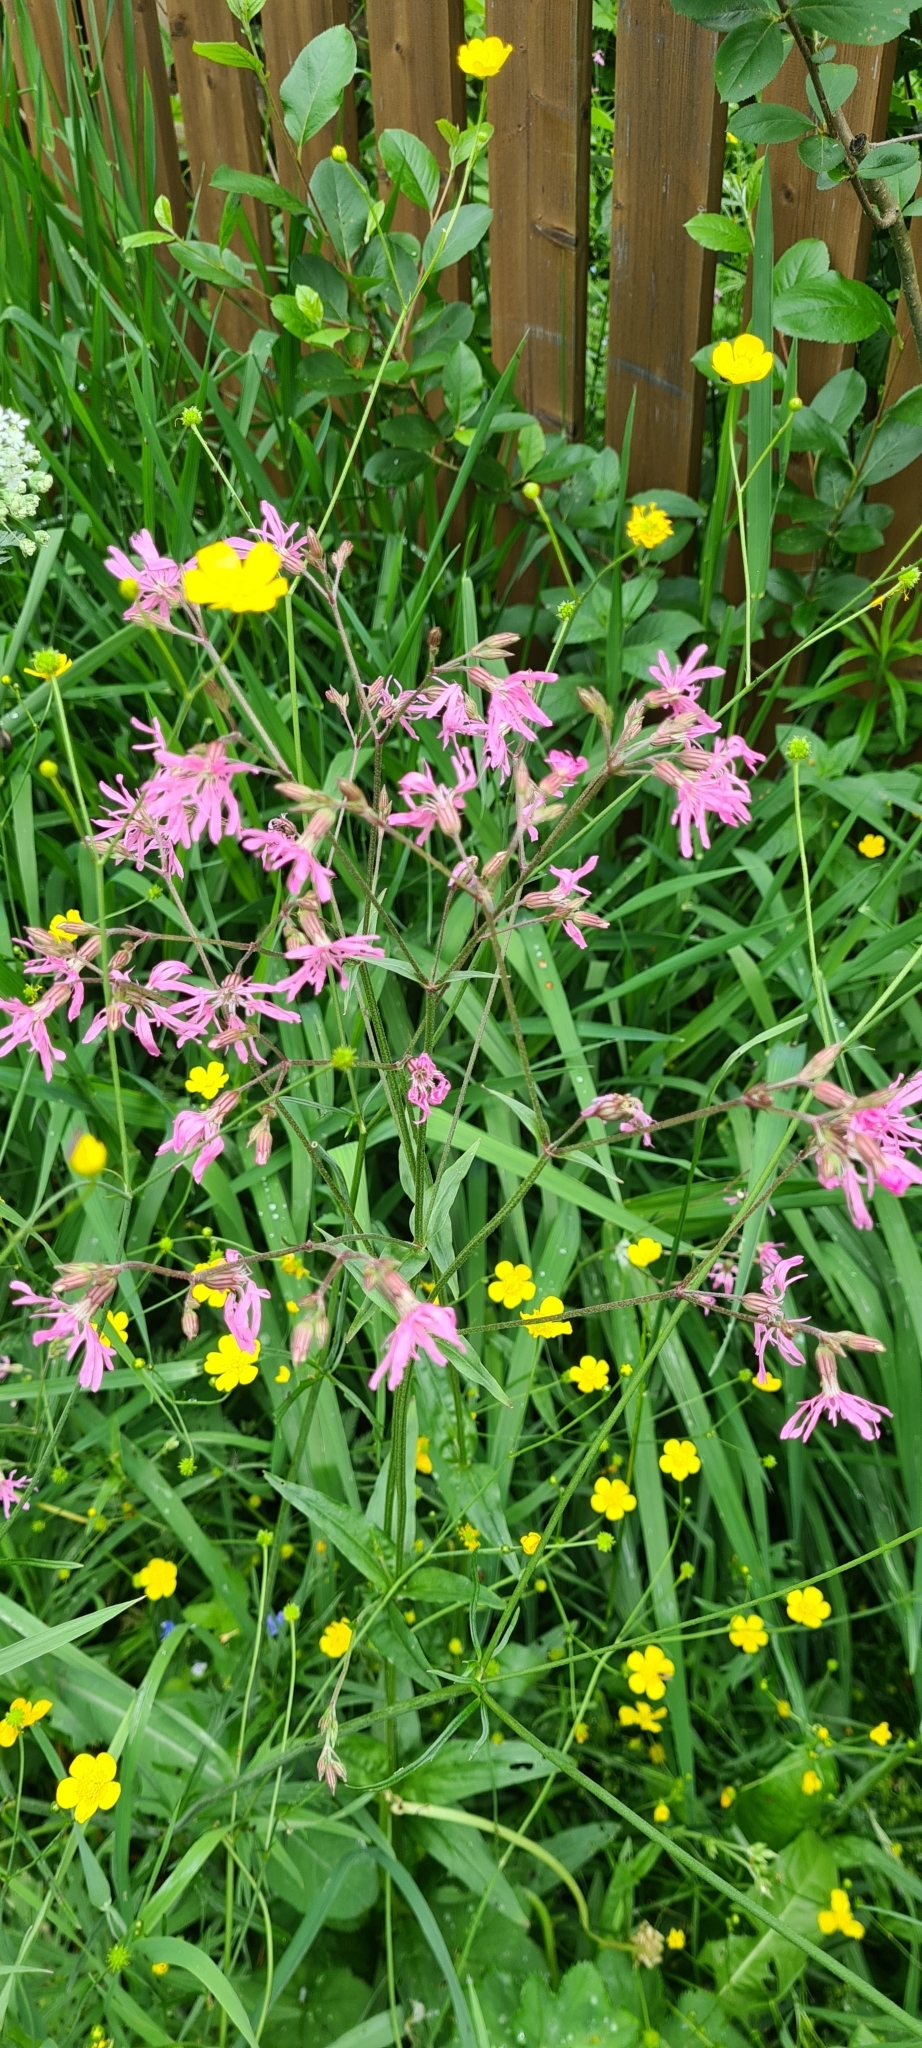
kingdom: Plantae
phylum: Tracheophyta
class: Magnoliopsida
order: Caryophyllales
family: Caryophyllaceae
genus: Silene
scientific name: Silene flos-cuculi
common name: Ragged-robin
